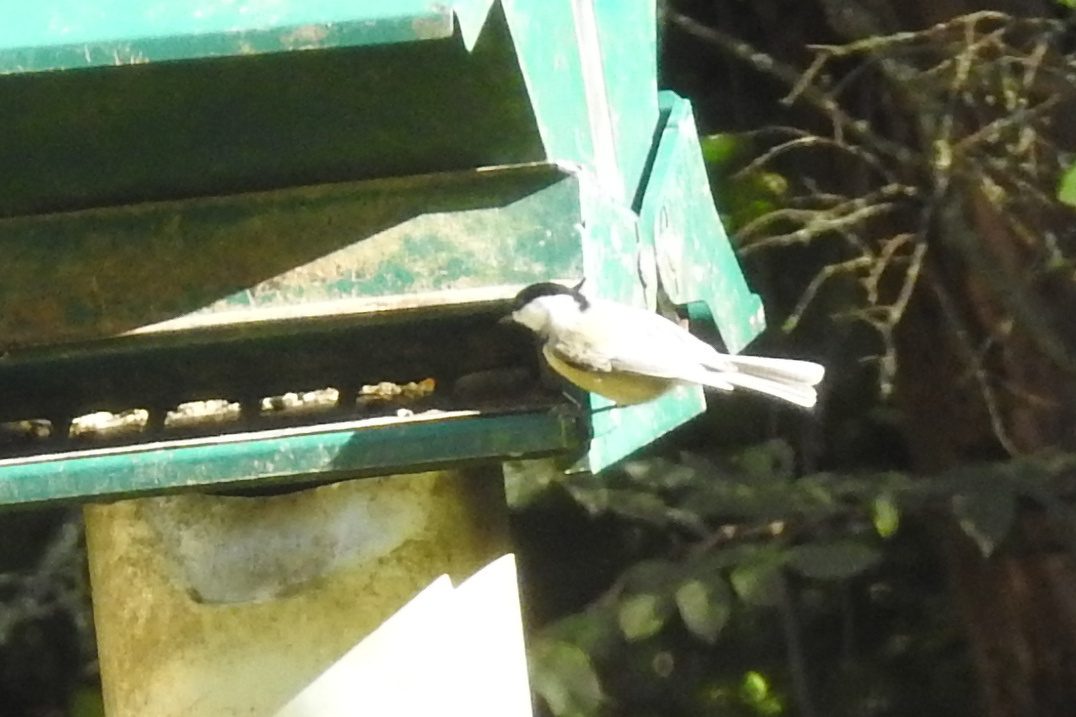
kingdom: Animalia
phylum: Chordata
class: Aves
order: Passeriformes
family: Paridae
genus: Poecile
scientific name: Poecile carolinensis
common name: Carolina chickadee
